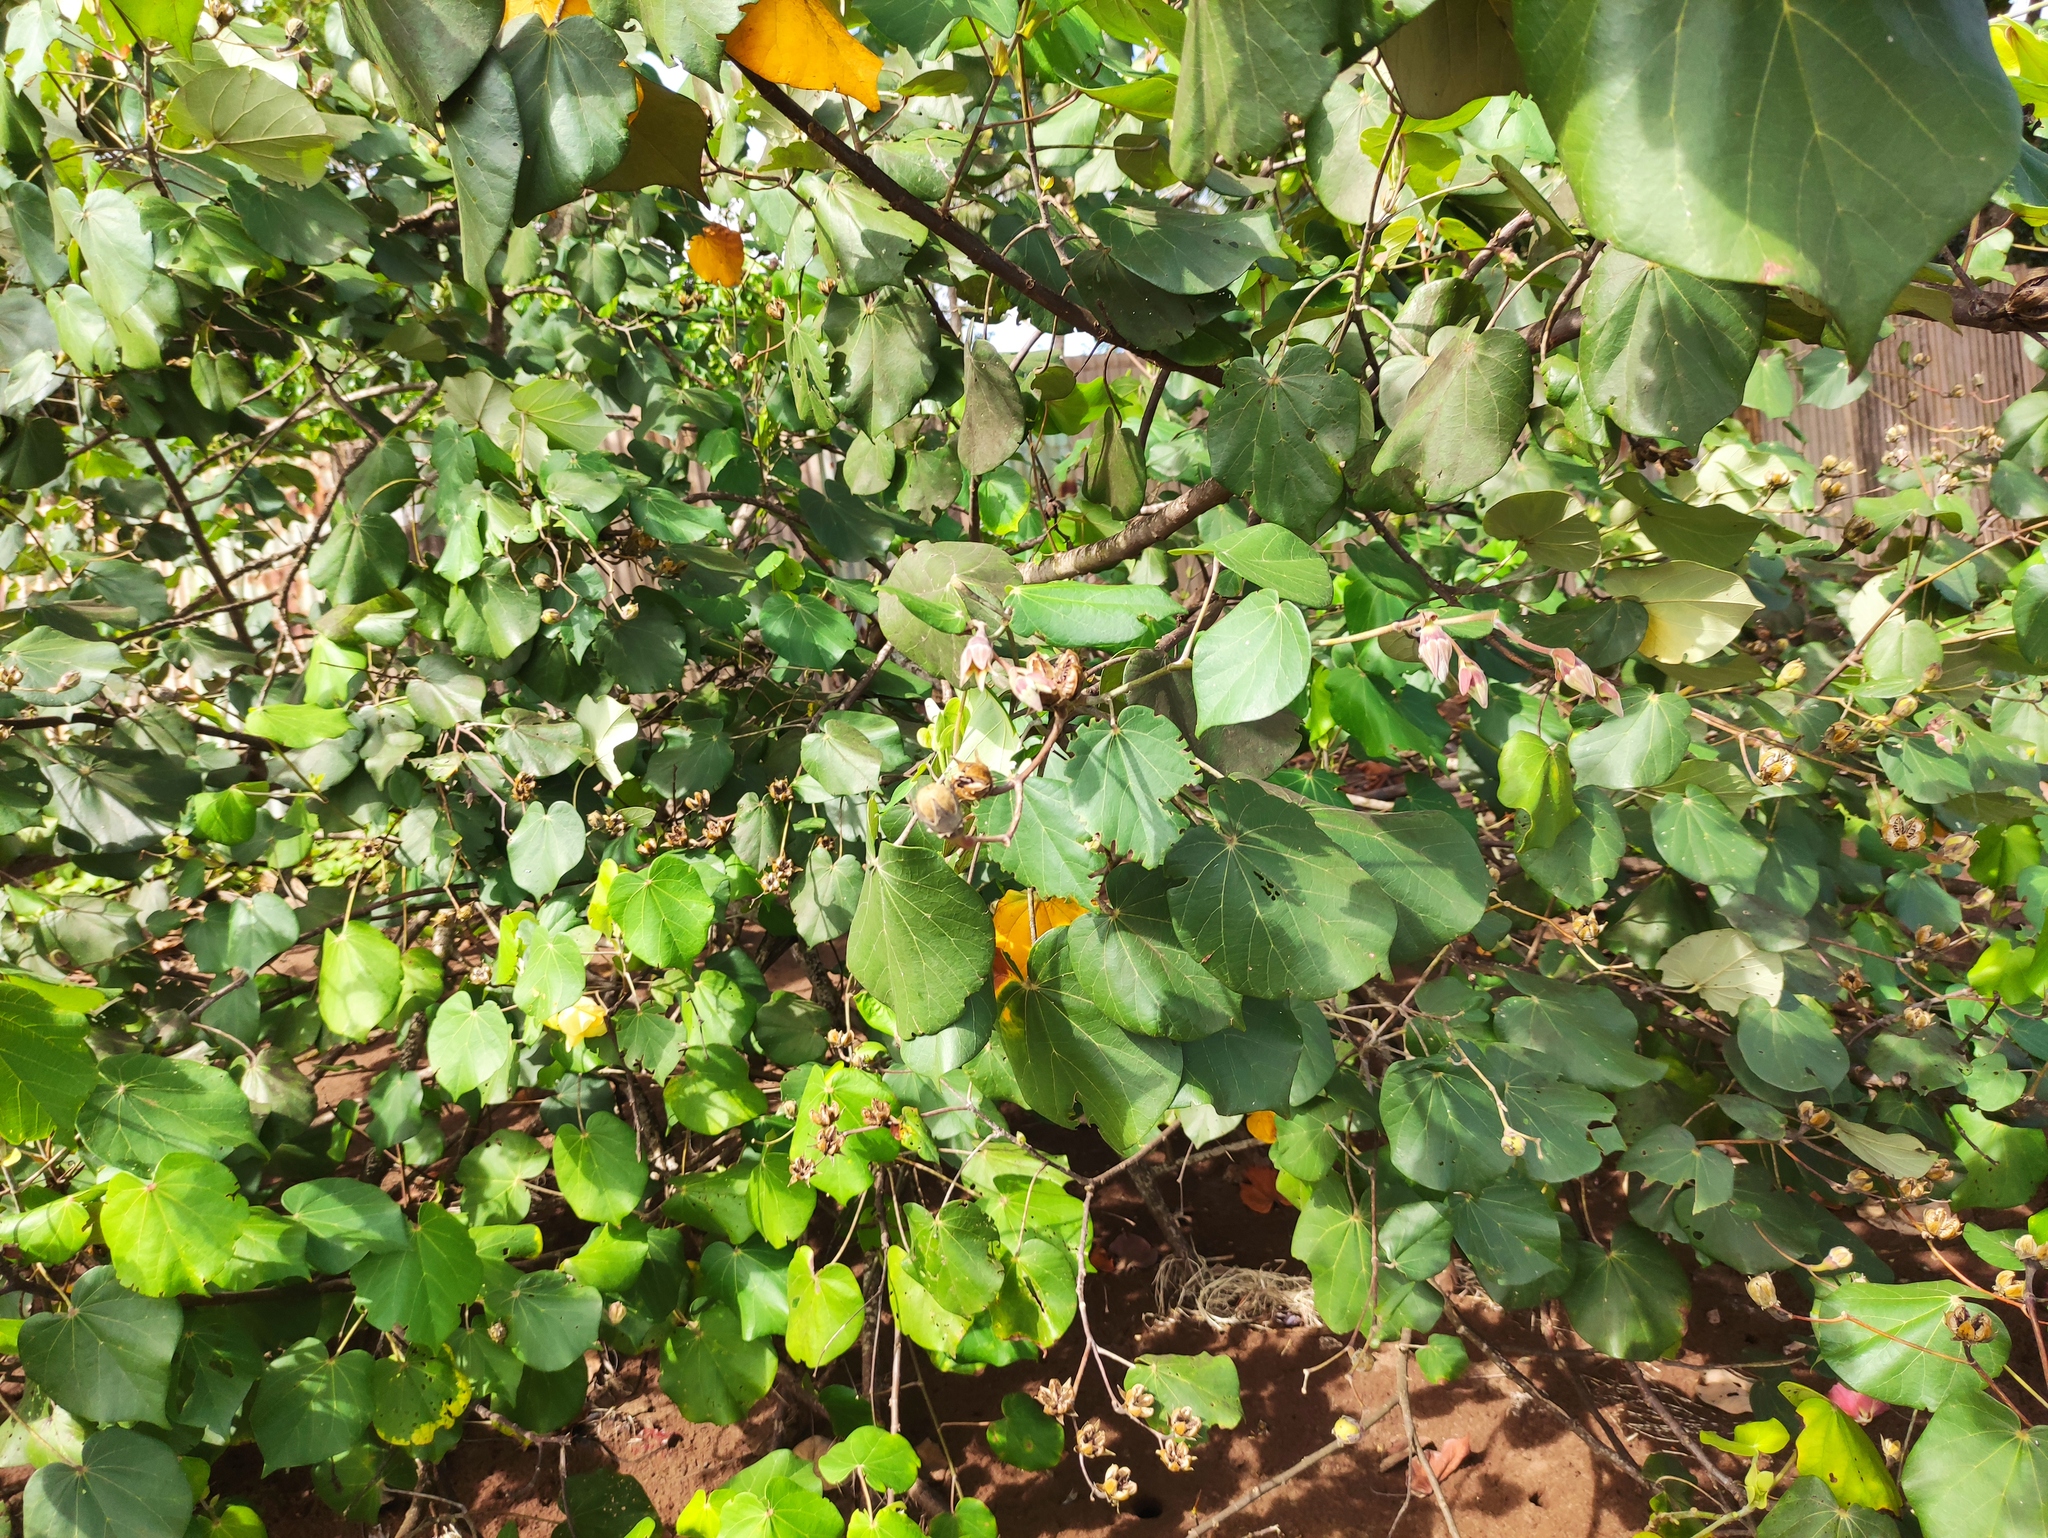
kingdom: Plantae
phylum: Tracheophyta
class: Magnoliopsida
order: Malvales
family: Malvaceae
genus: Talipariti
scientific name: Talipariti tiliaceum
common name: Sea hibiscus
